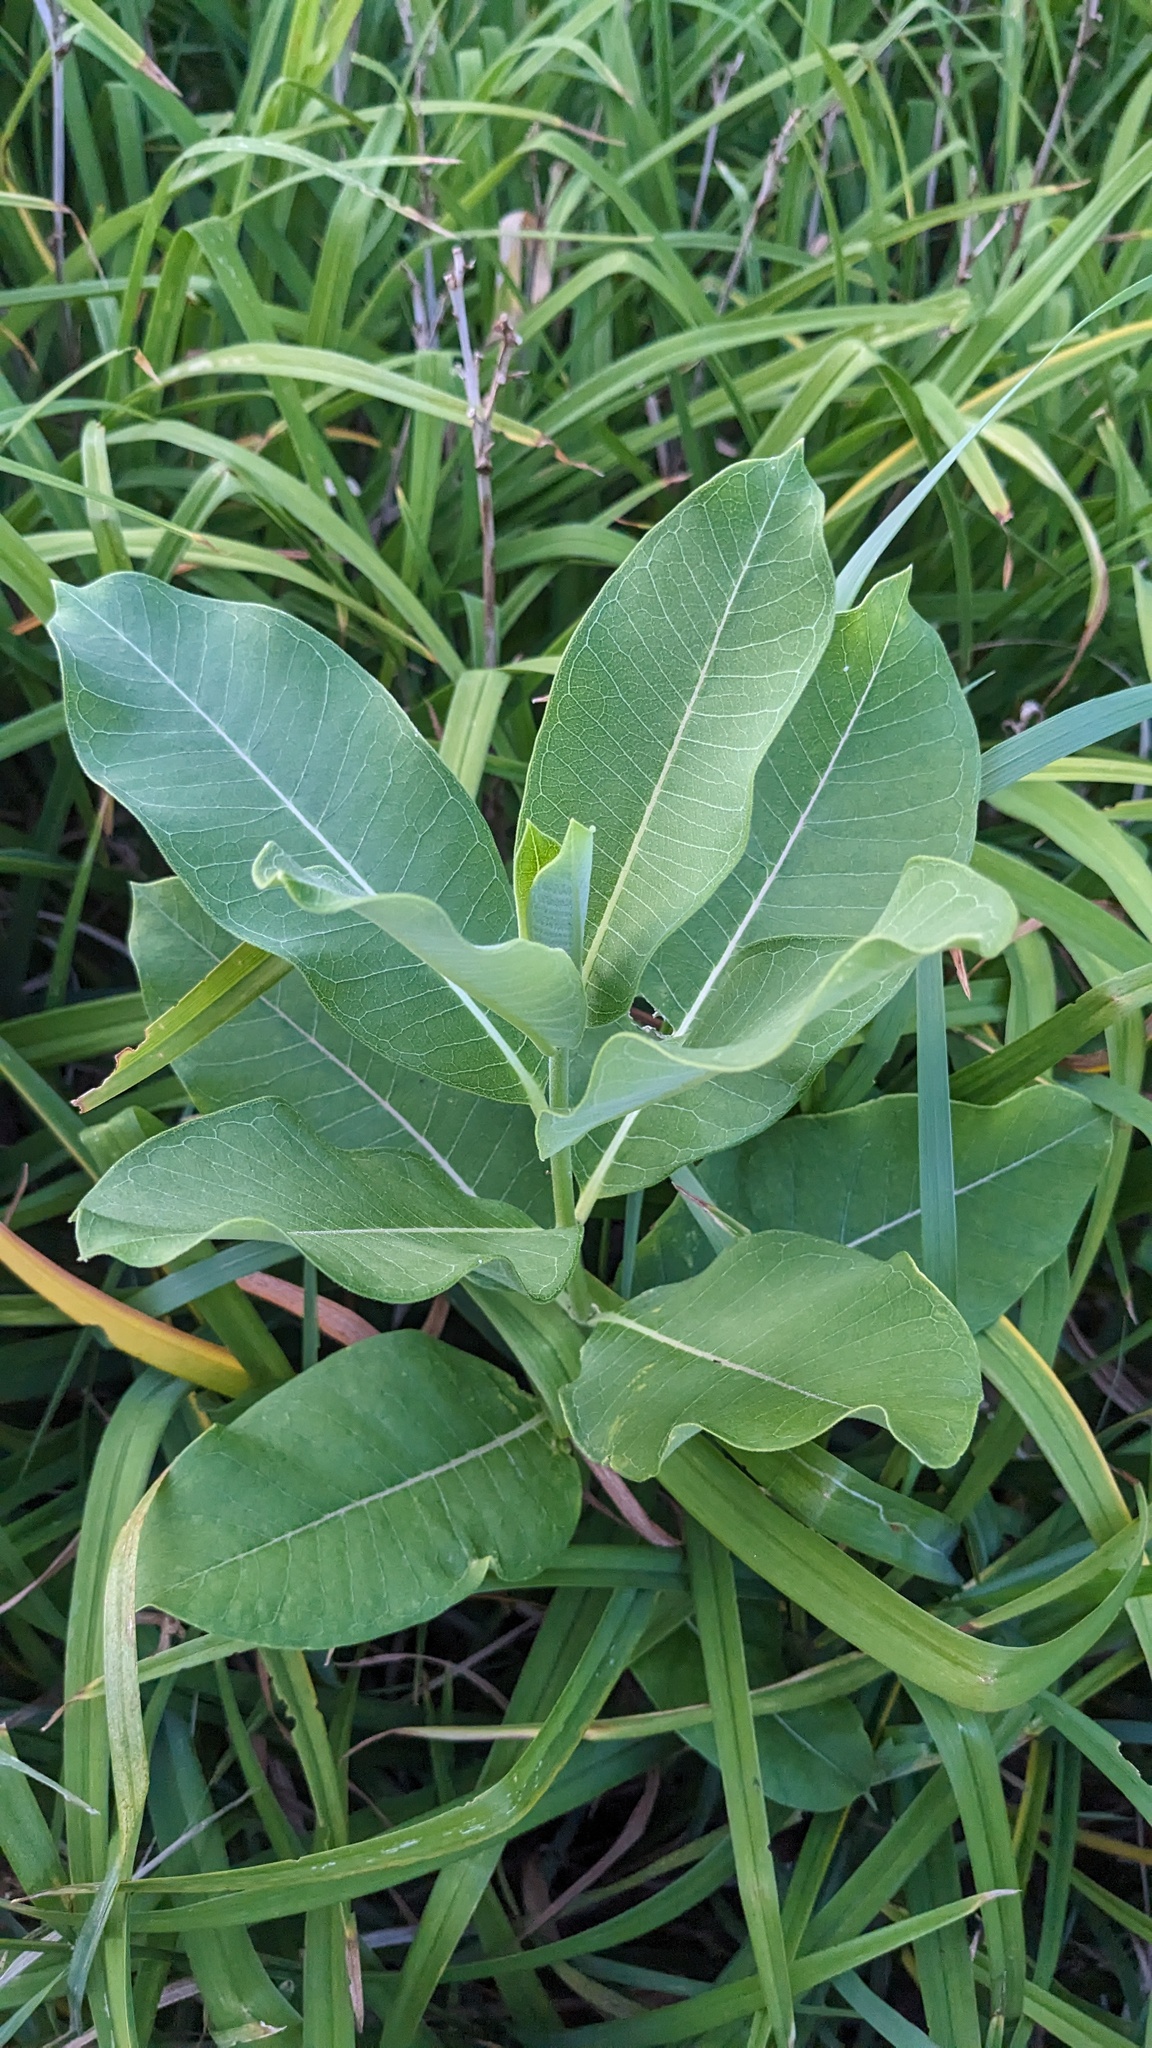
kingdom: Plantae
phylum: Tracheophyta
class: Magnoliopsida
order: Gentianales
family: Apocynaceae
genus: Asclepias
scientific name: Asclepias syriaca
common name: Common milkweed
